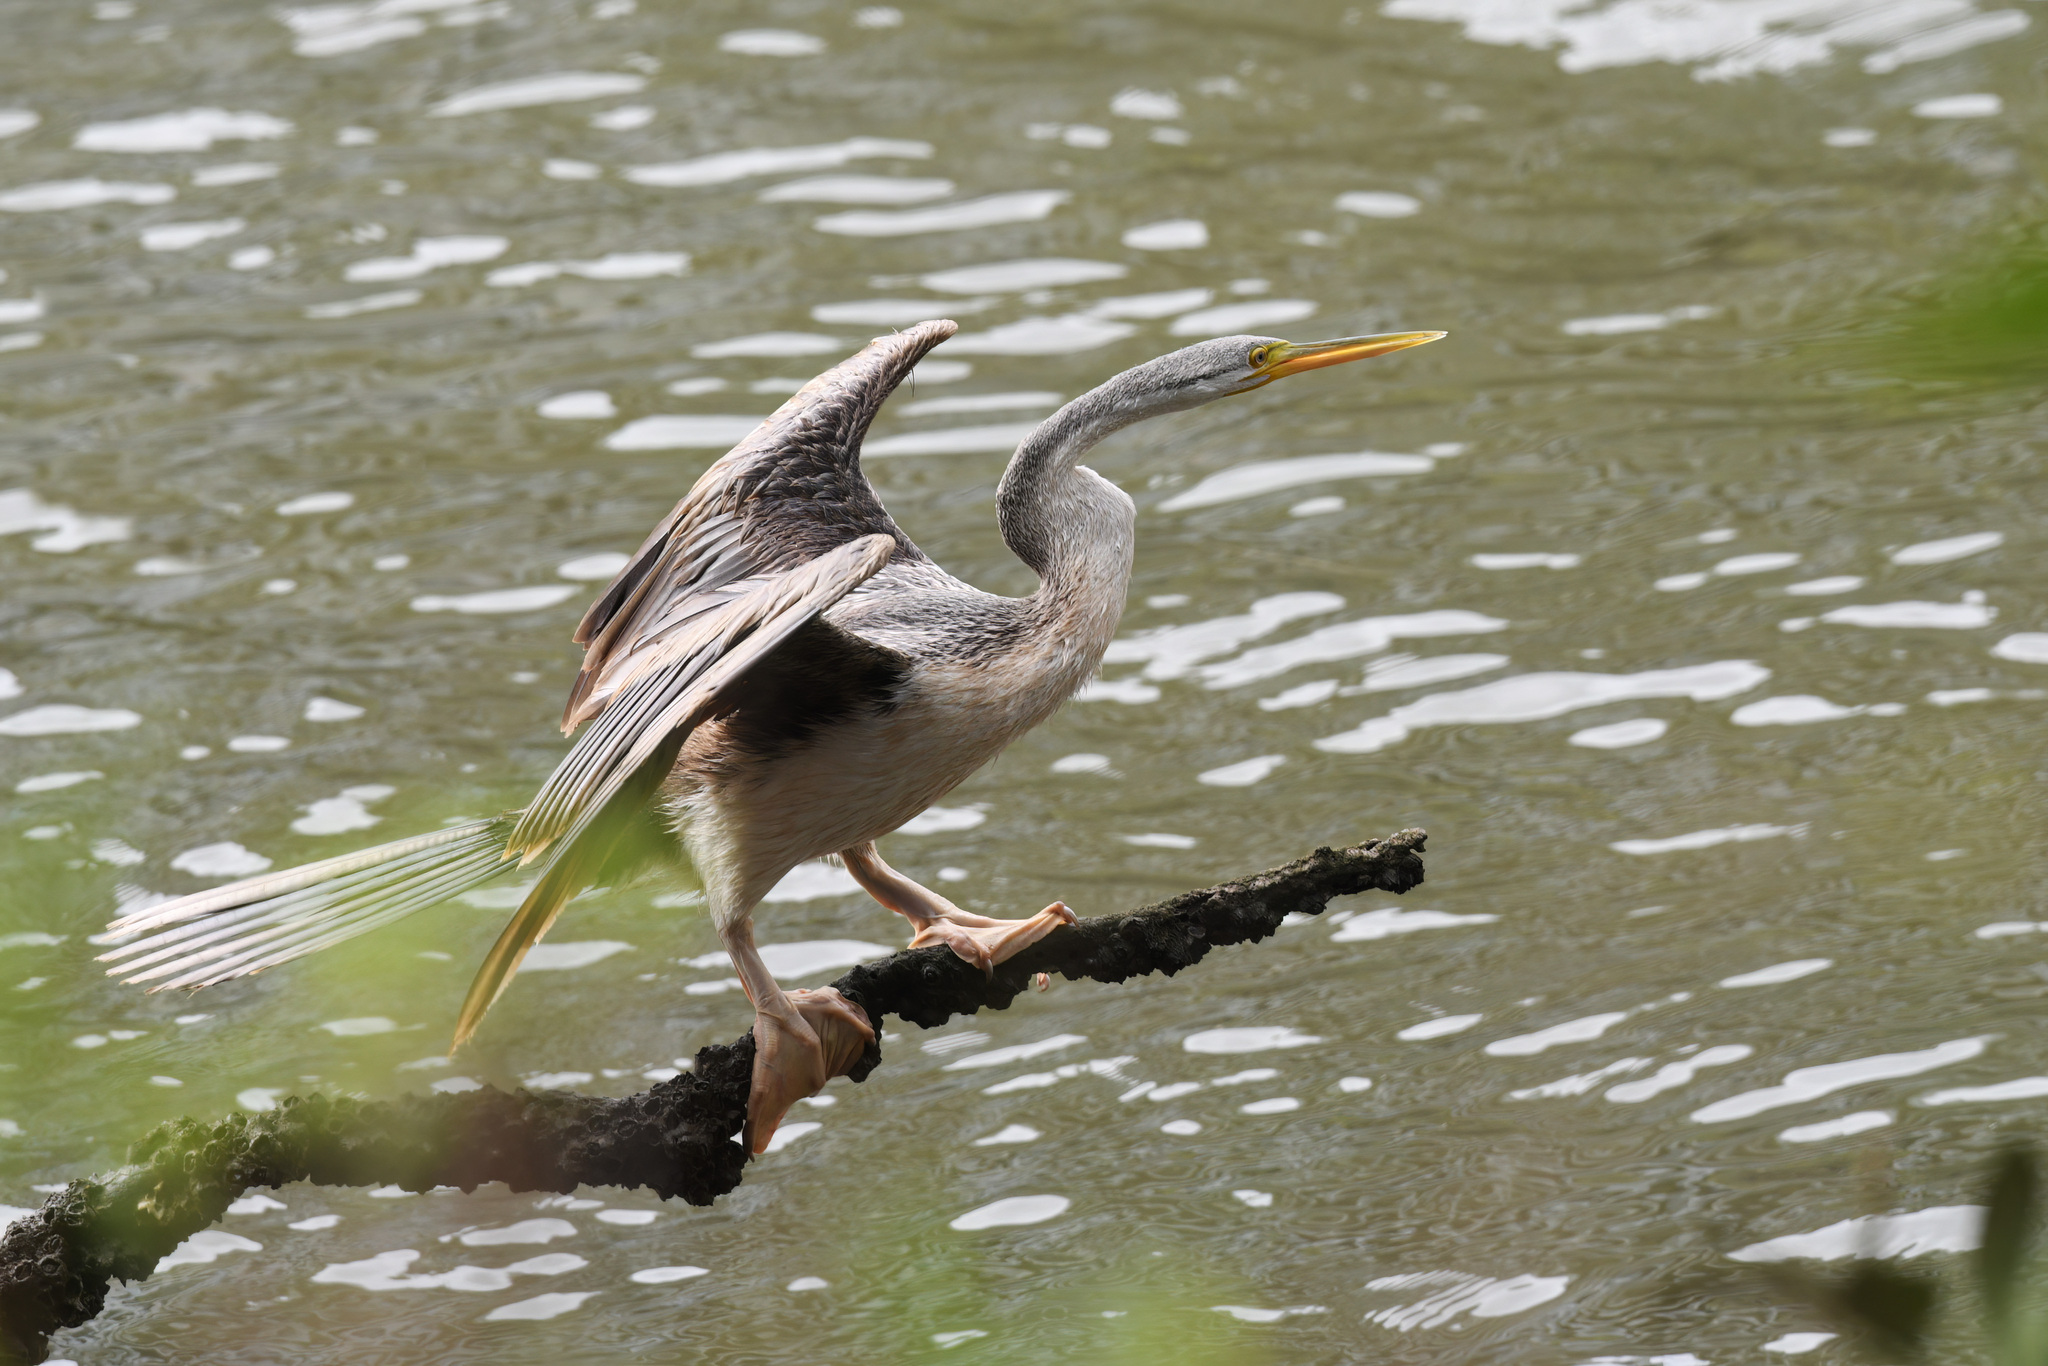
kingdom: Animalia
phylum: Chordata
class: Aves
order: Suliformes
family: Anhingidae
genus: Anhinga
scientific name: Anhinga novaehollandiae
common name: Australasian darter
